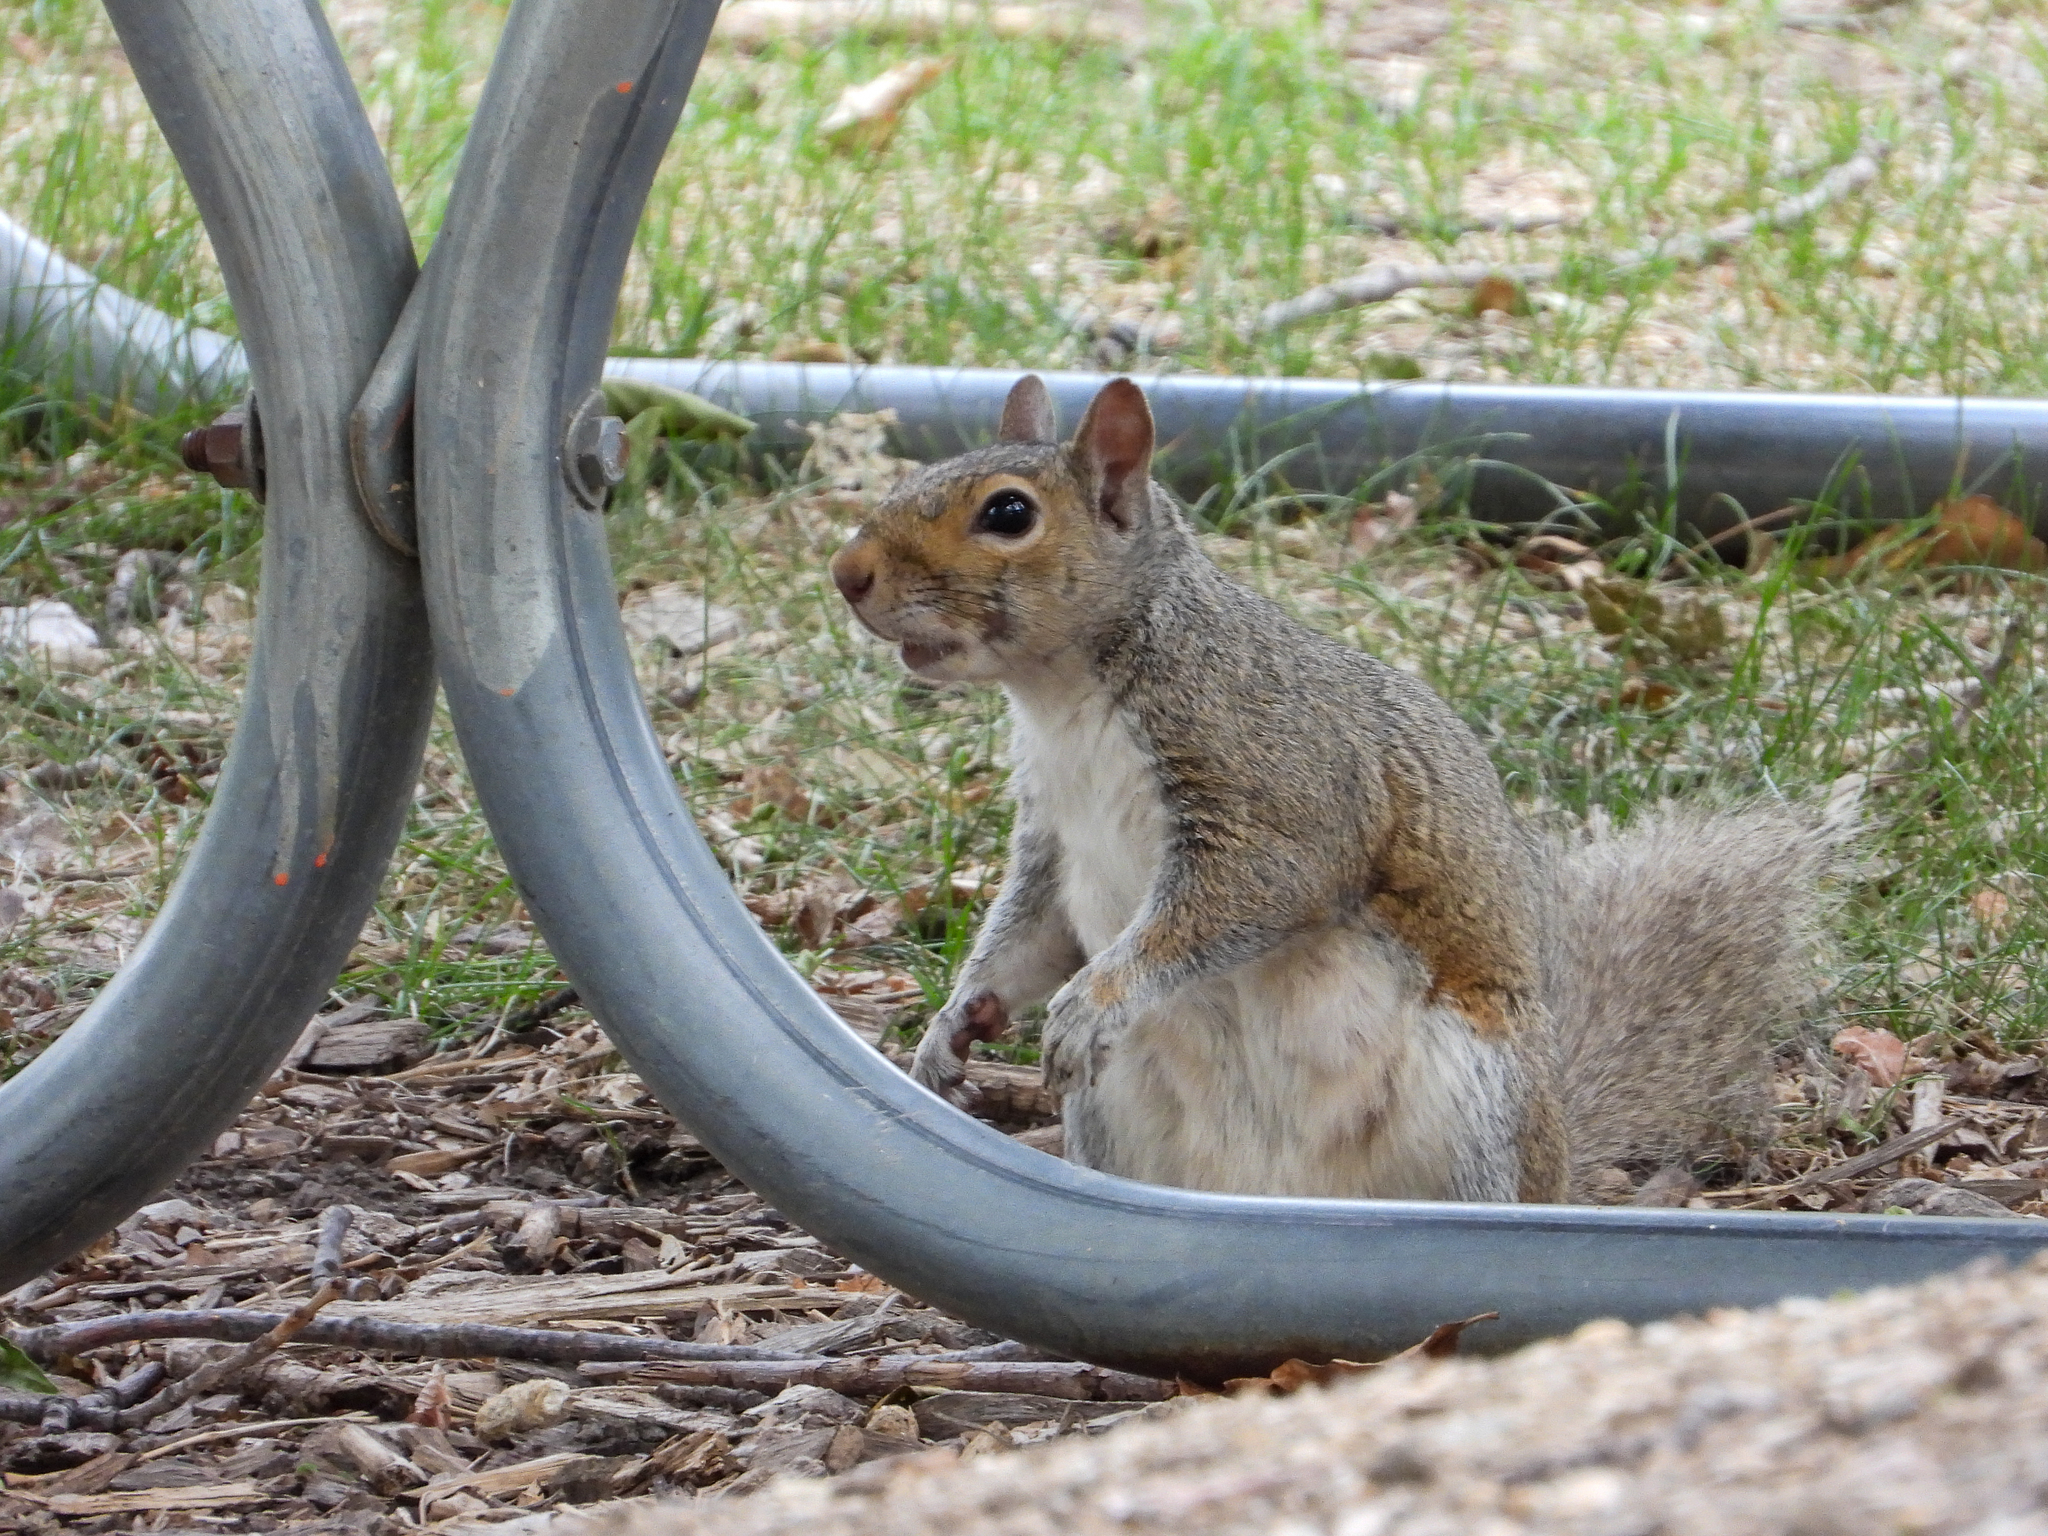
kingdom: Animalia
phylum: Chordata
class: Mammalia
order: Rodentia
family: Sciuridae
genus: Sciurus
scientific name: Sciurus carolinensis
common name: Eastern gray squirrel
